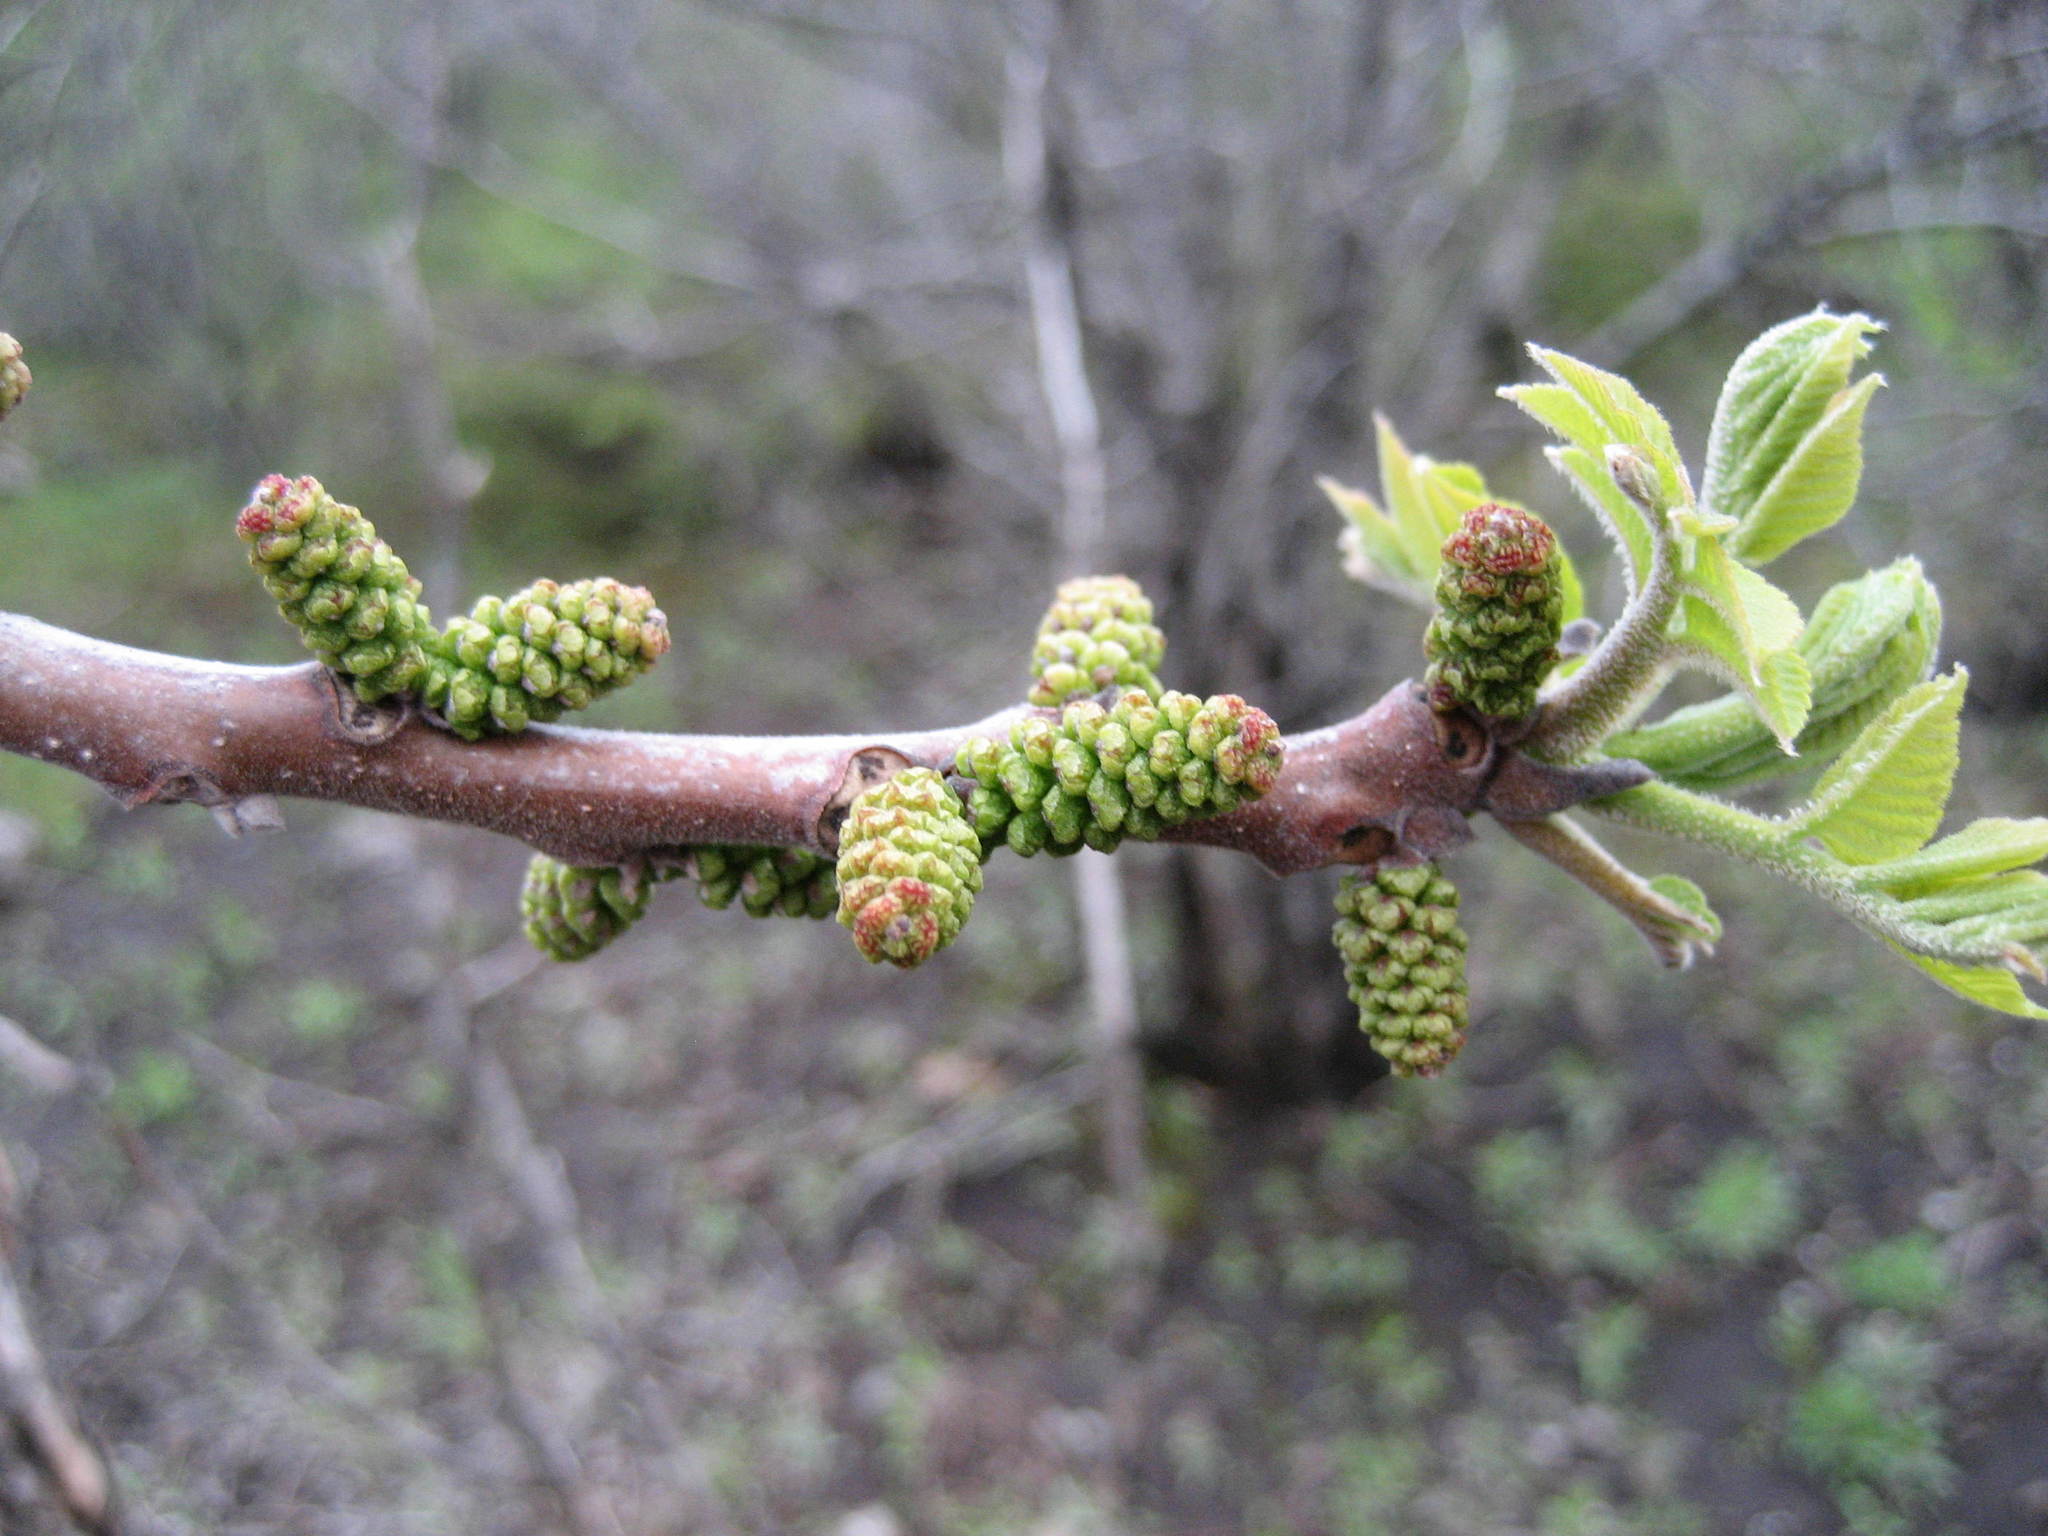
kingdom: Plantae
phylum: Tracheophyta
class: Magnoliopsida
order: Fagales
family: Juglandaceae
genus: Juglans
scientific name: Juglans nigra
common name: Black walnut
